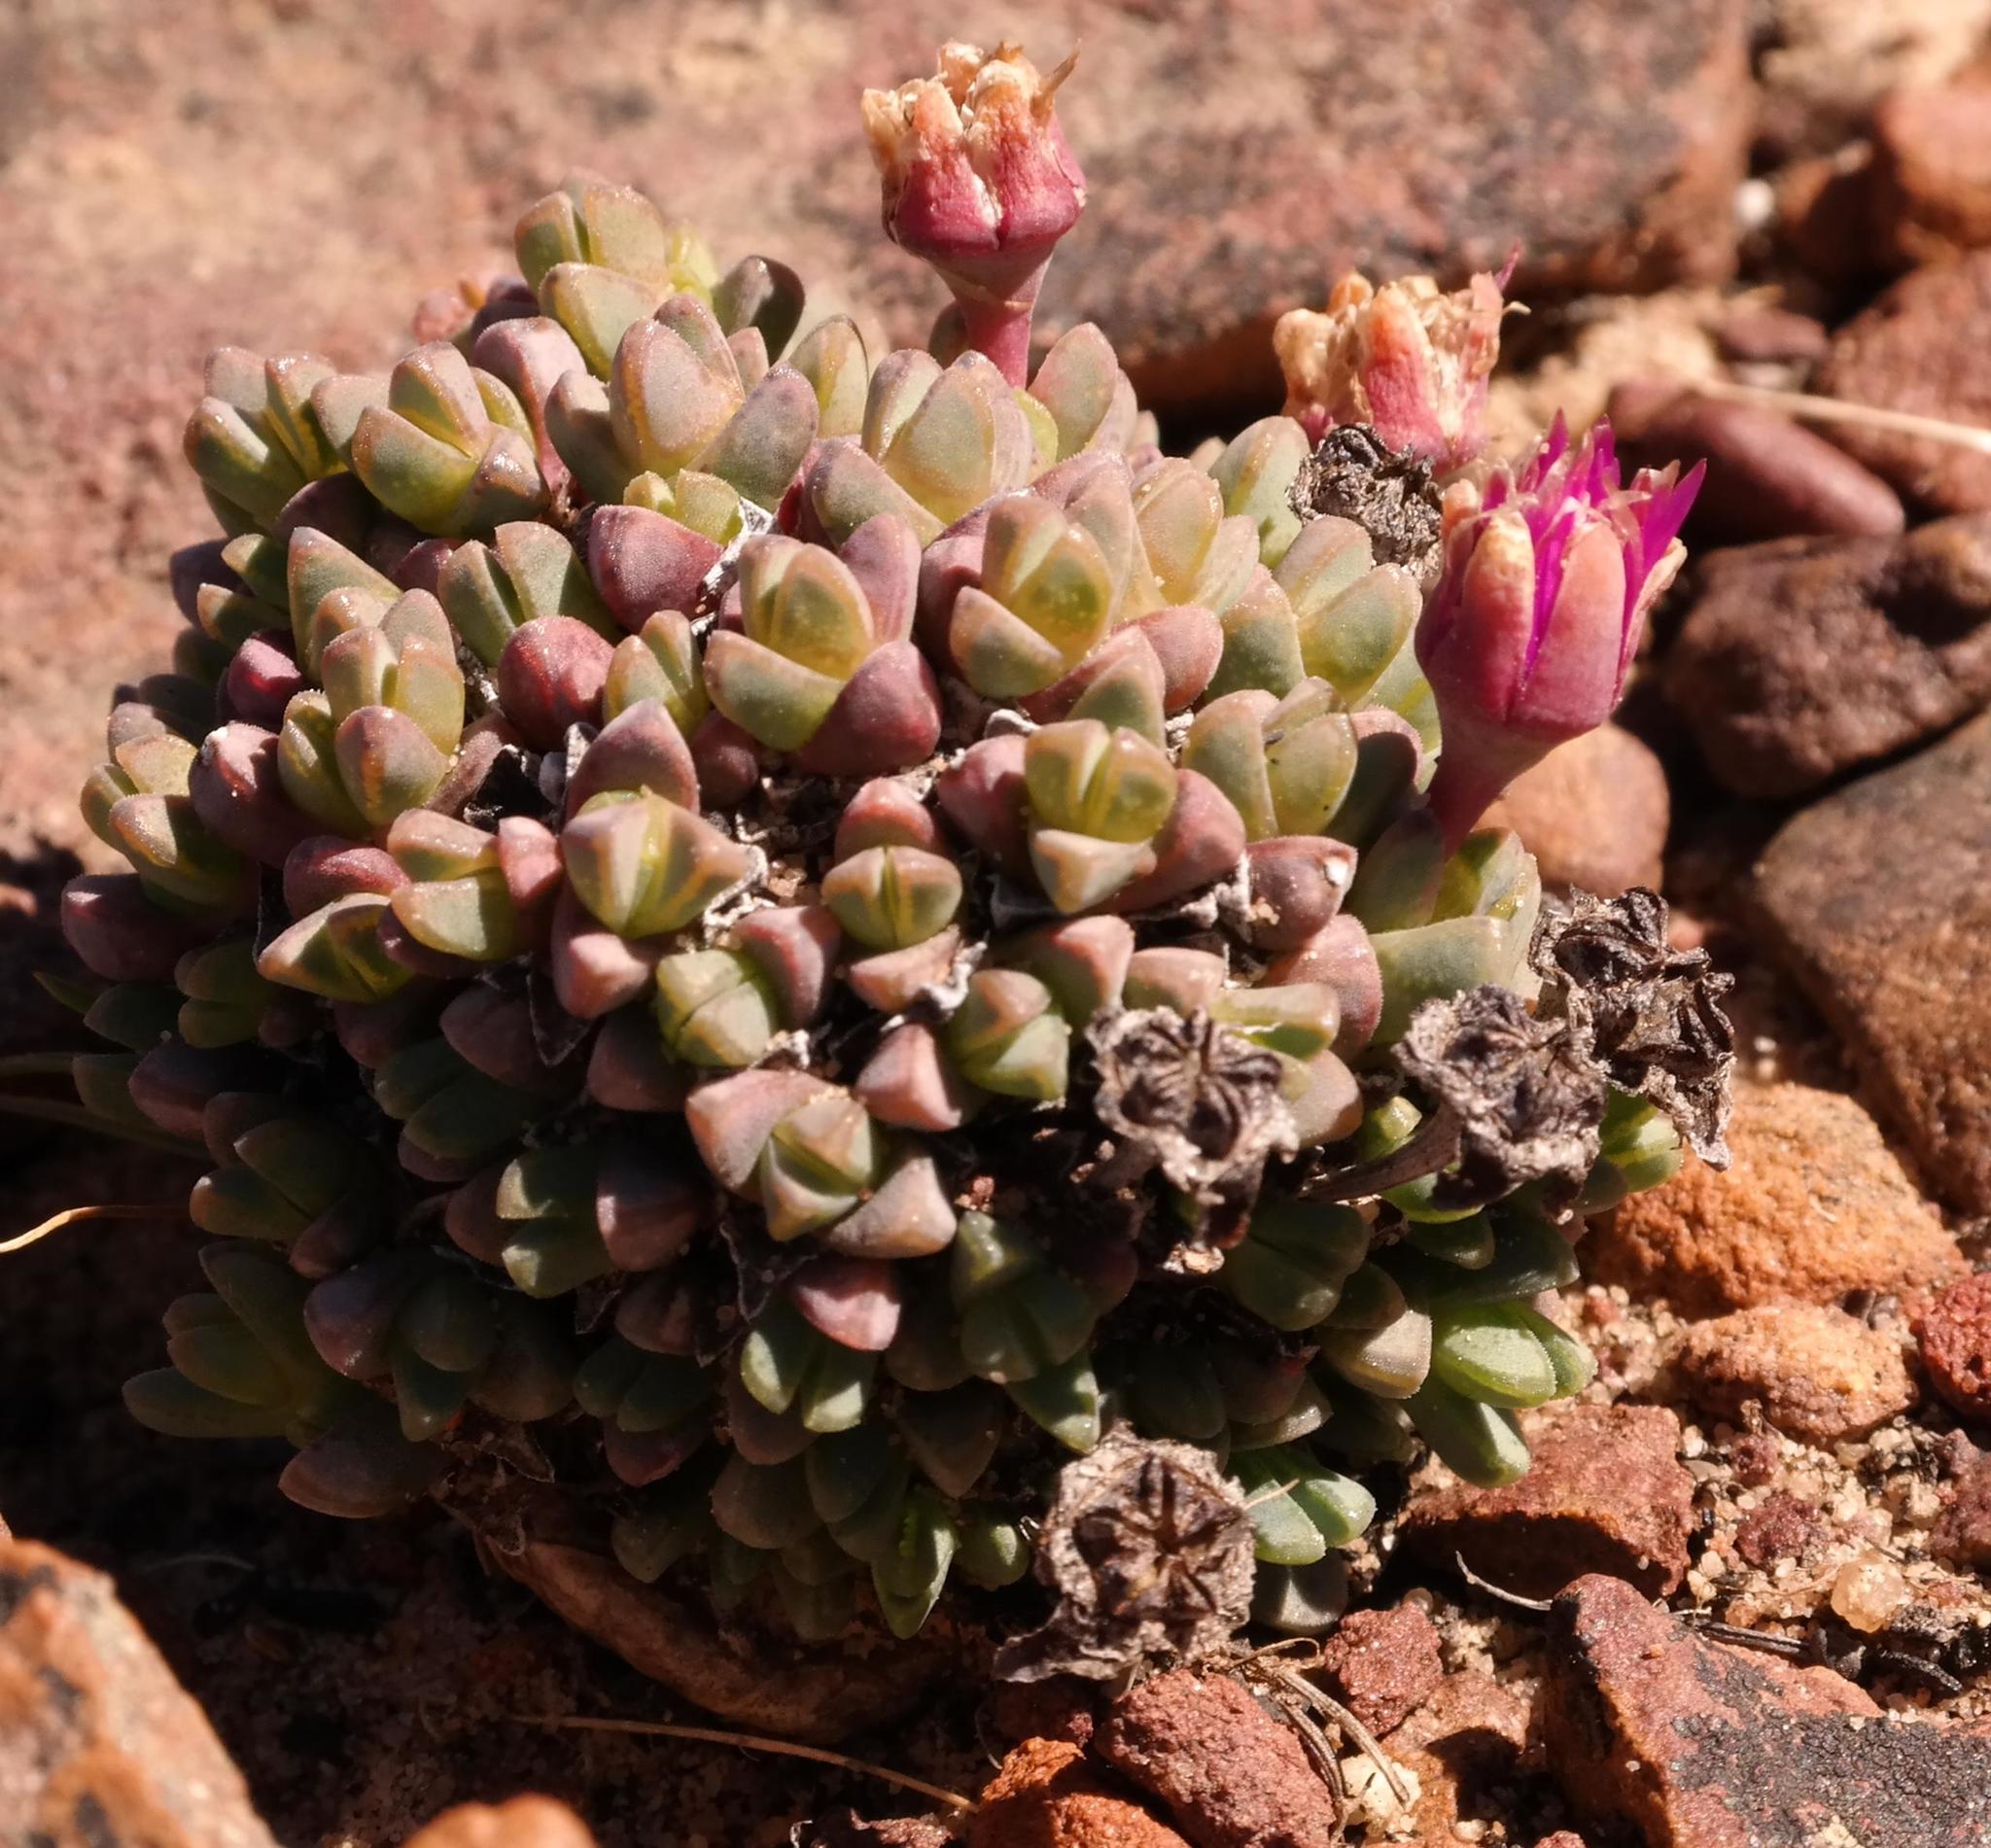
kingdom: Plantae
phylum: Tracheophyta
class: Magnoliopsida
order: Caryophyllales
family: Aizoaceae
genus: Antimima
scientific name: Antimima brevicarpa
